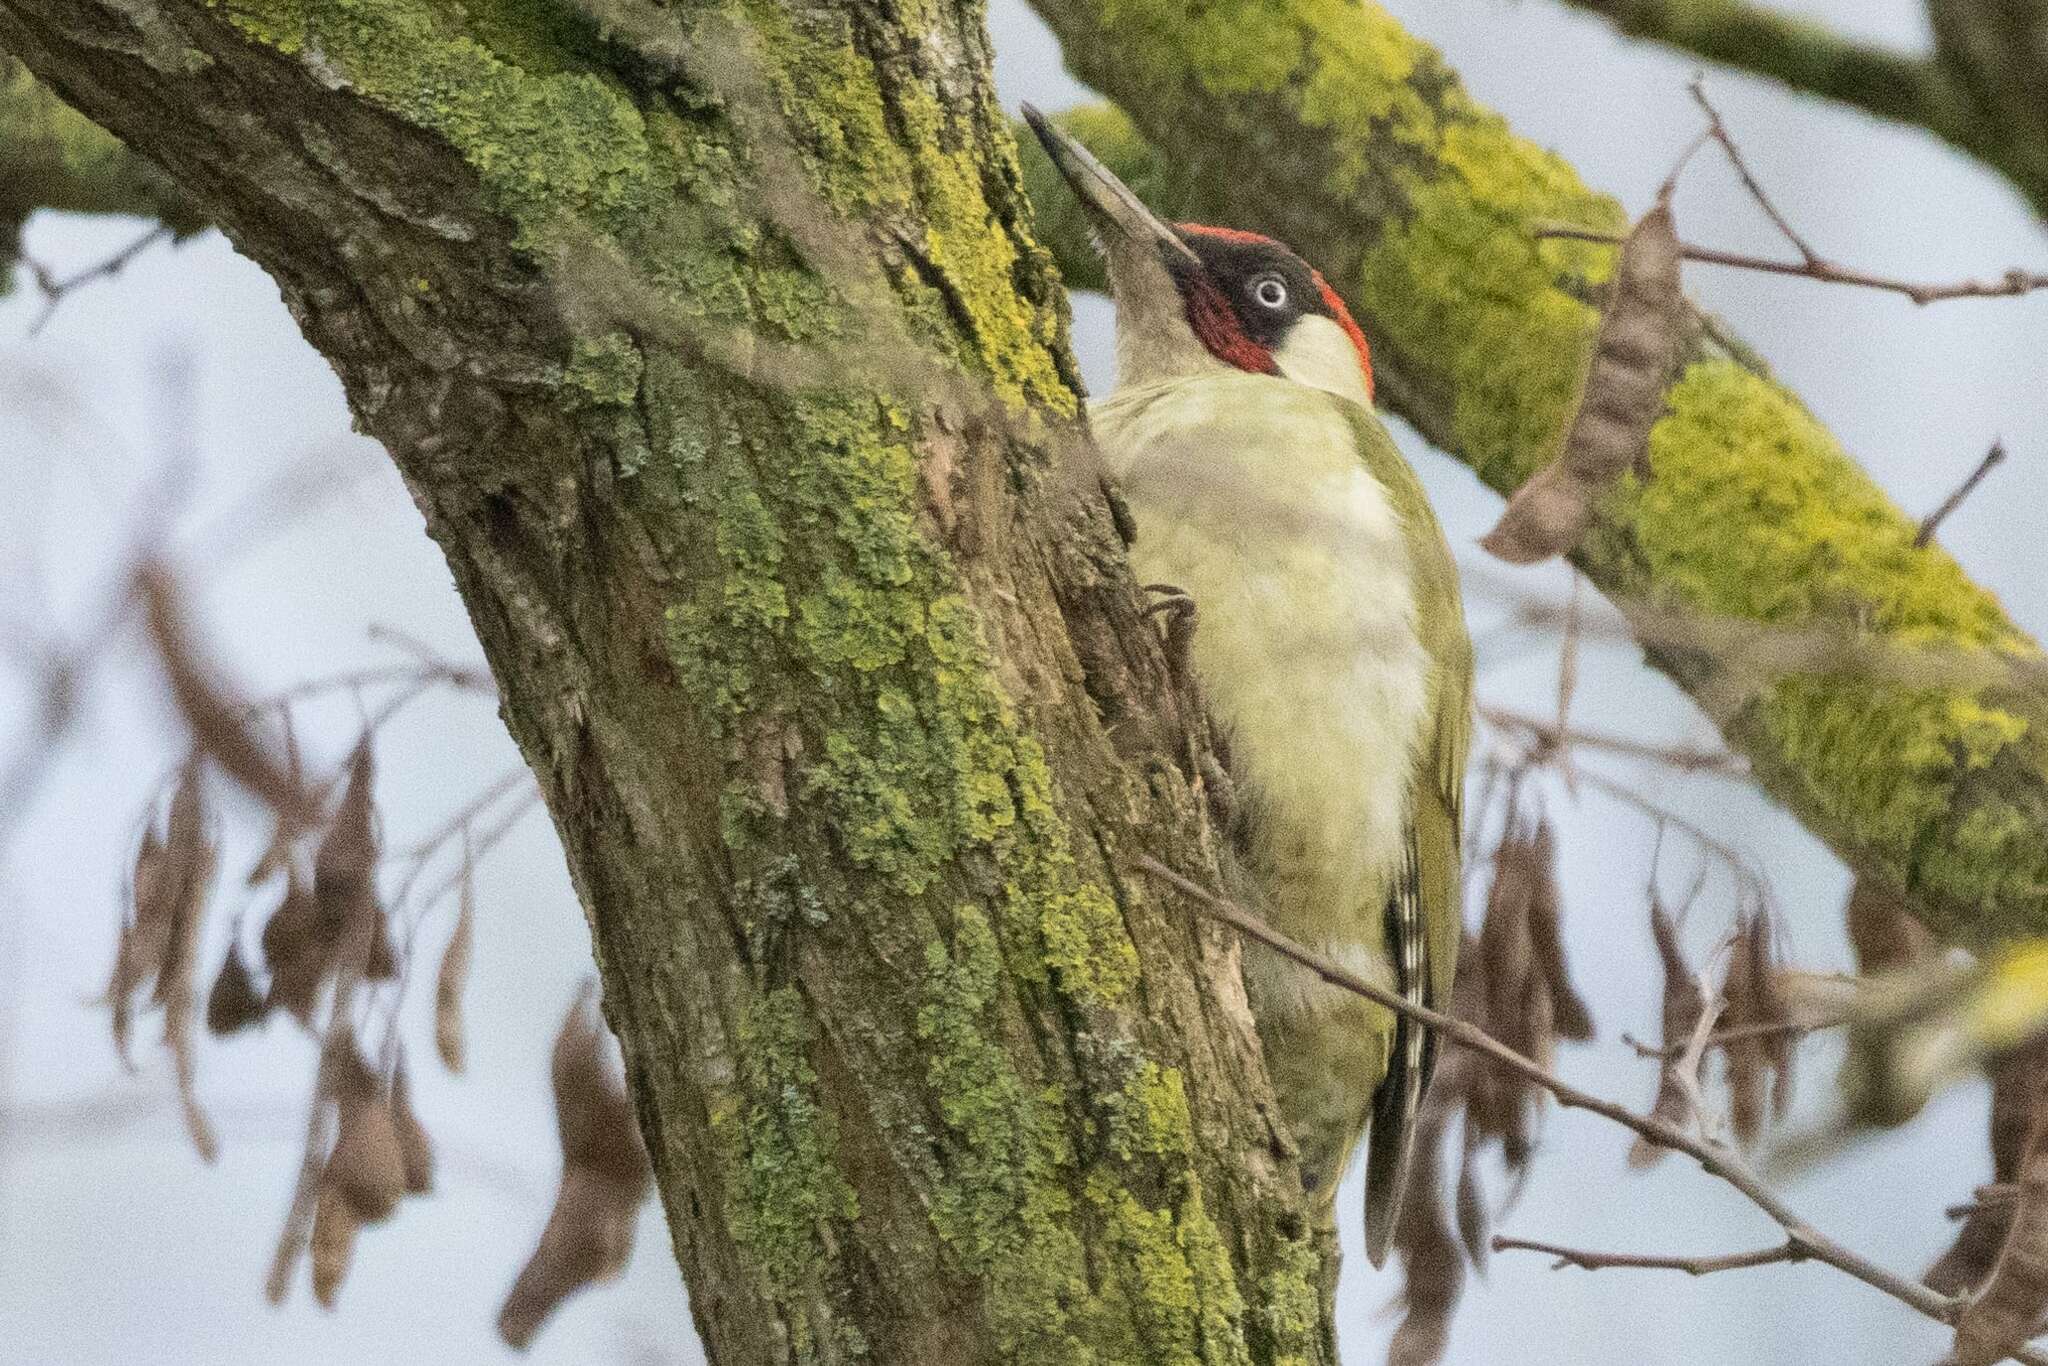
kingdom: Animalia
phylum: Chordata
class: Aves
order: Piciformes
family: Picidae
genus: Picus
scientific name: Picus viridis
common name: European green woodpecker
